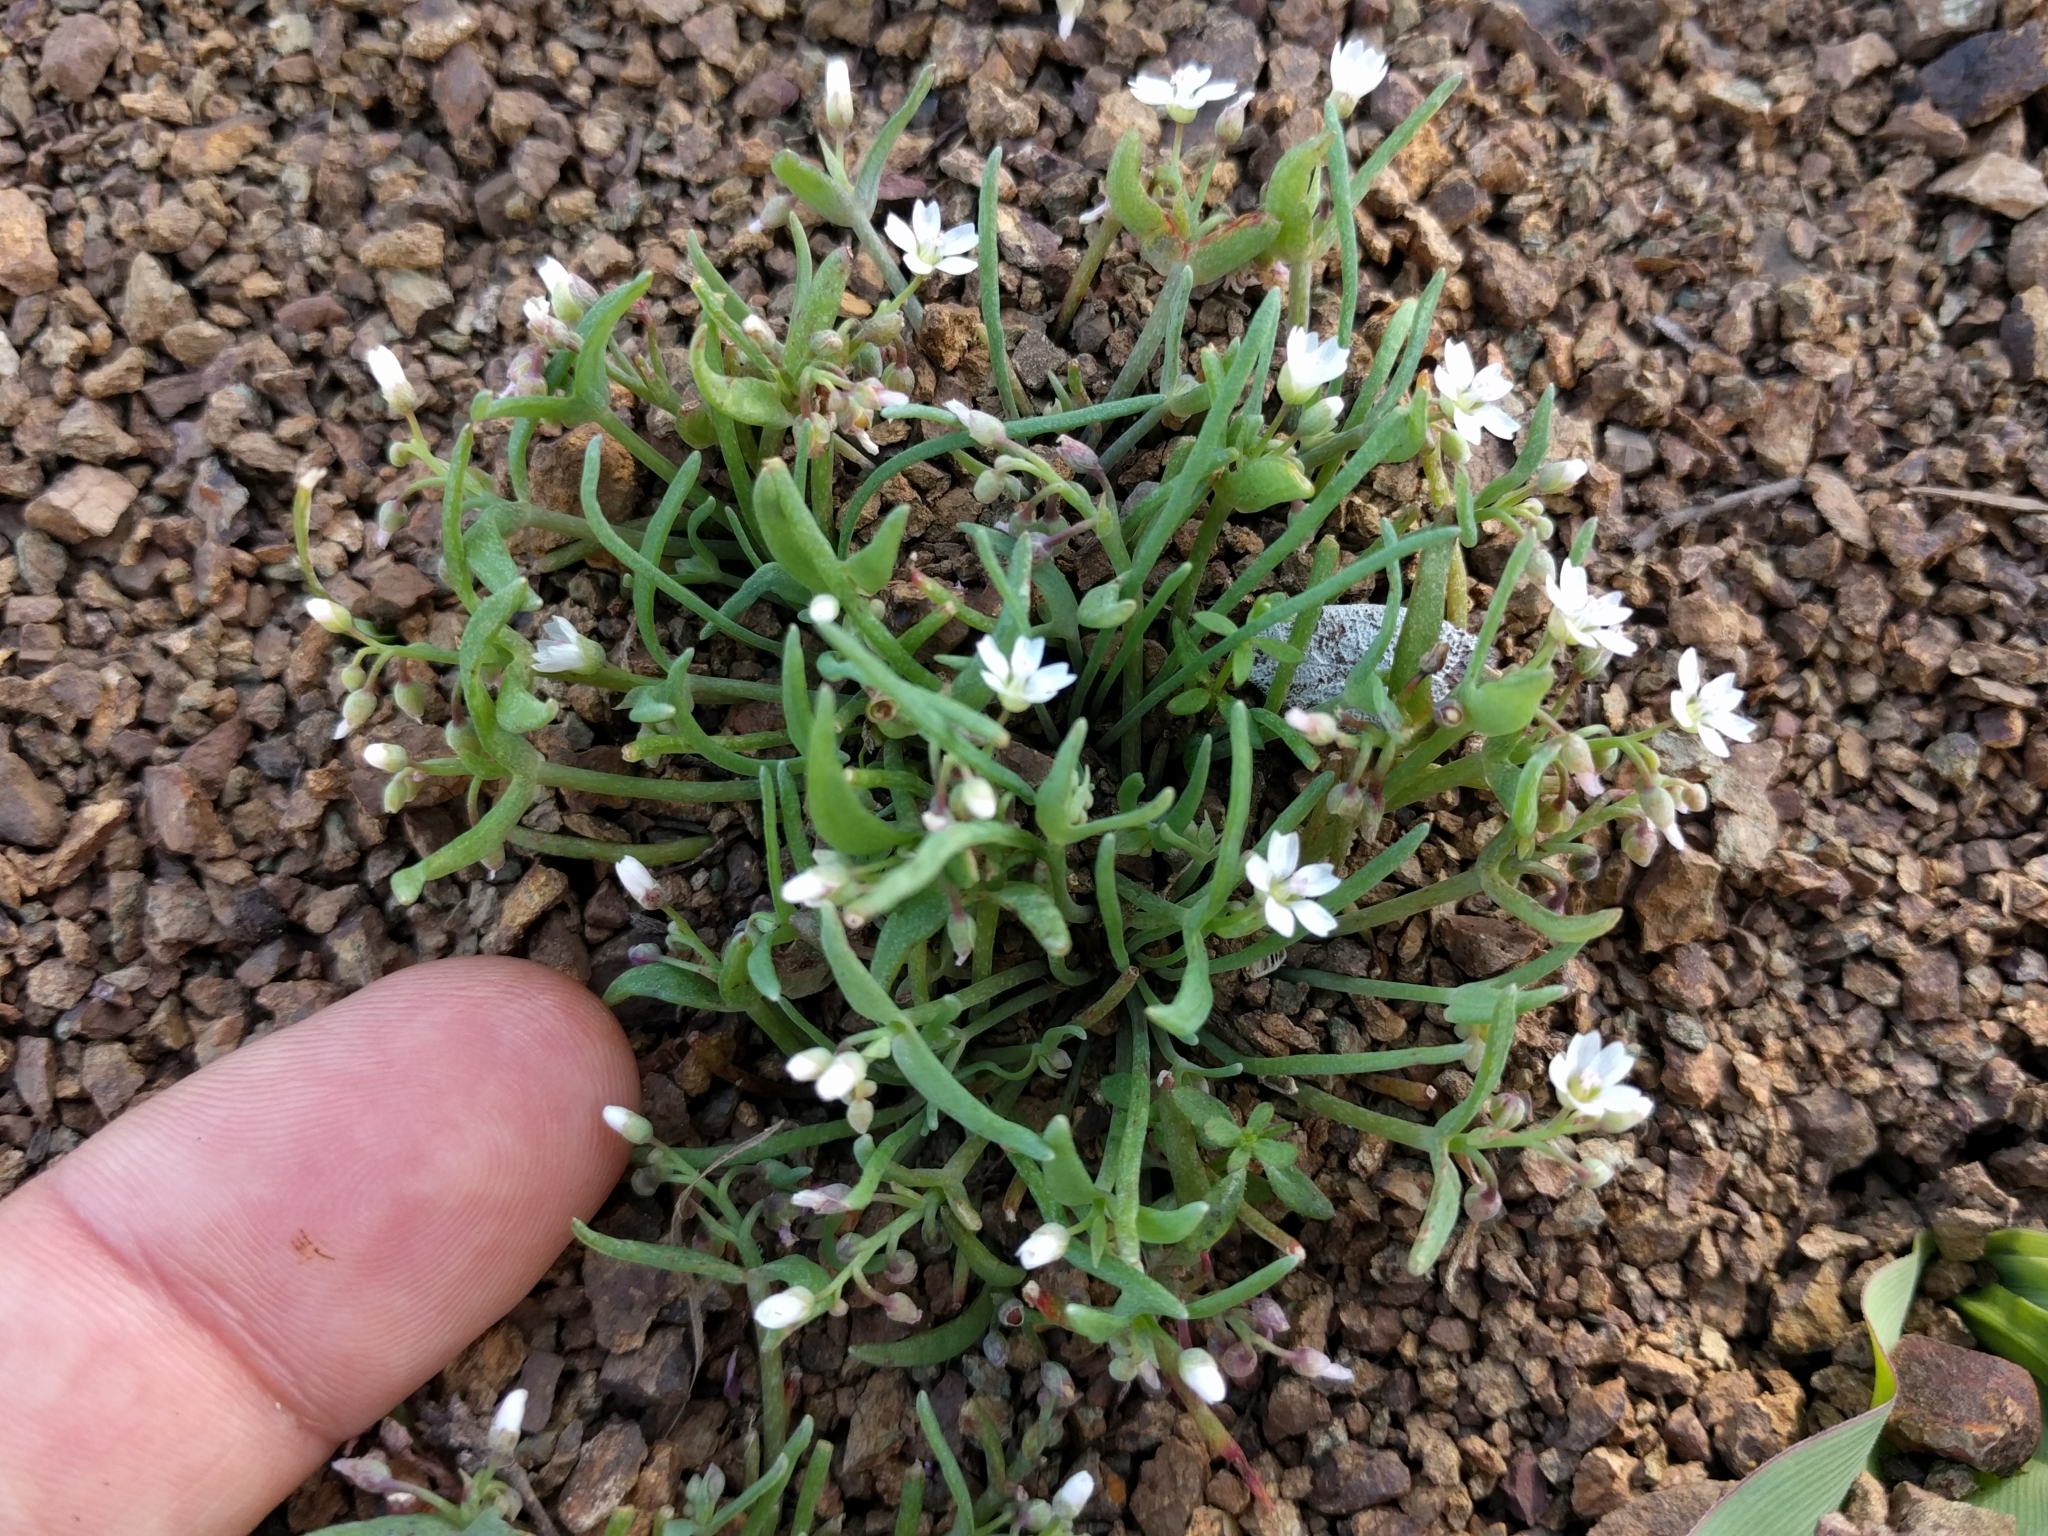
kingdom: Plantae
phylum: Tracheophyta
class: Magnoliopsida
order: Caryophyllales
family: Montiaceae
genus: Claytonia
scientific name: Claytonia exigua
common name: Pale spring beauty
